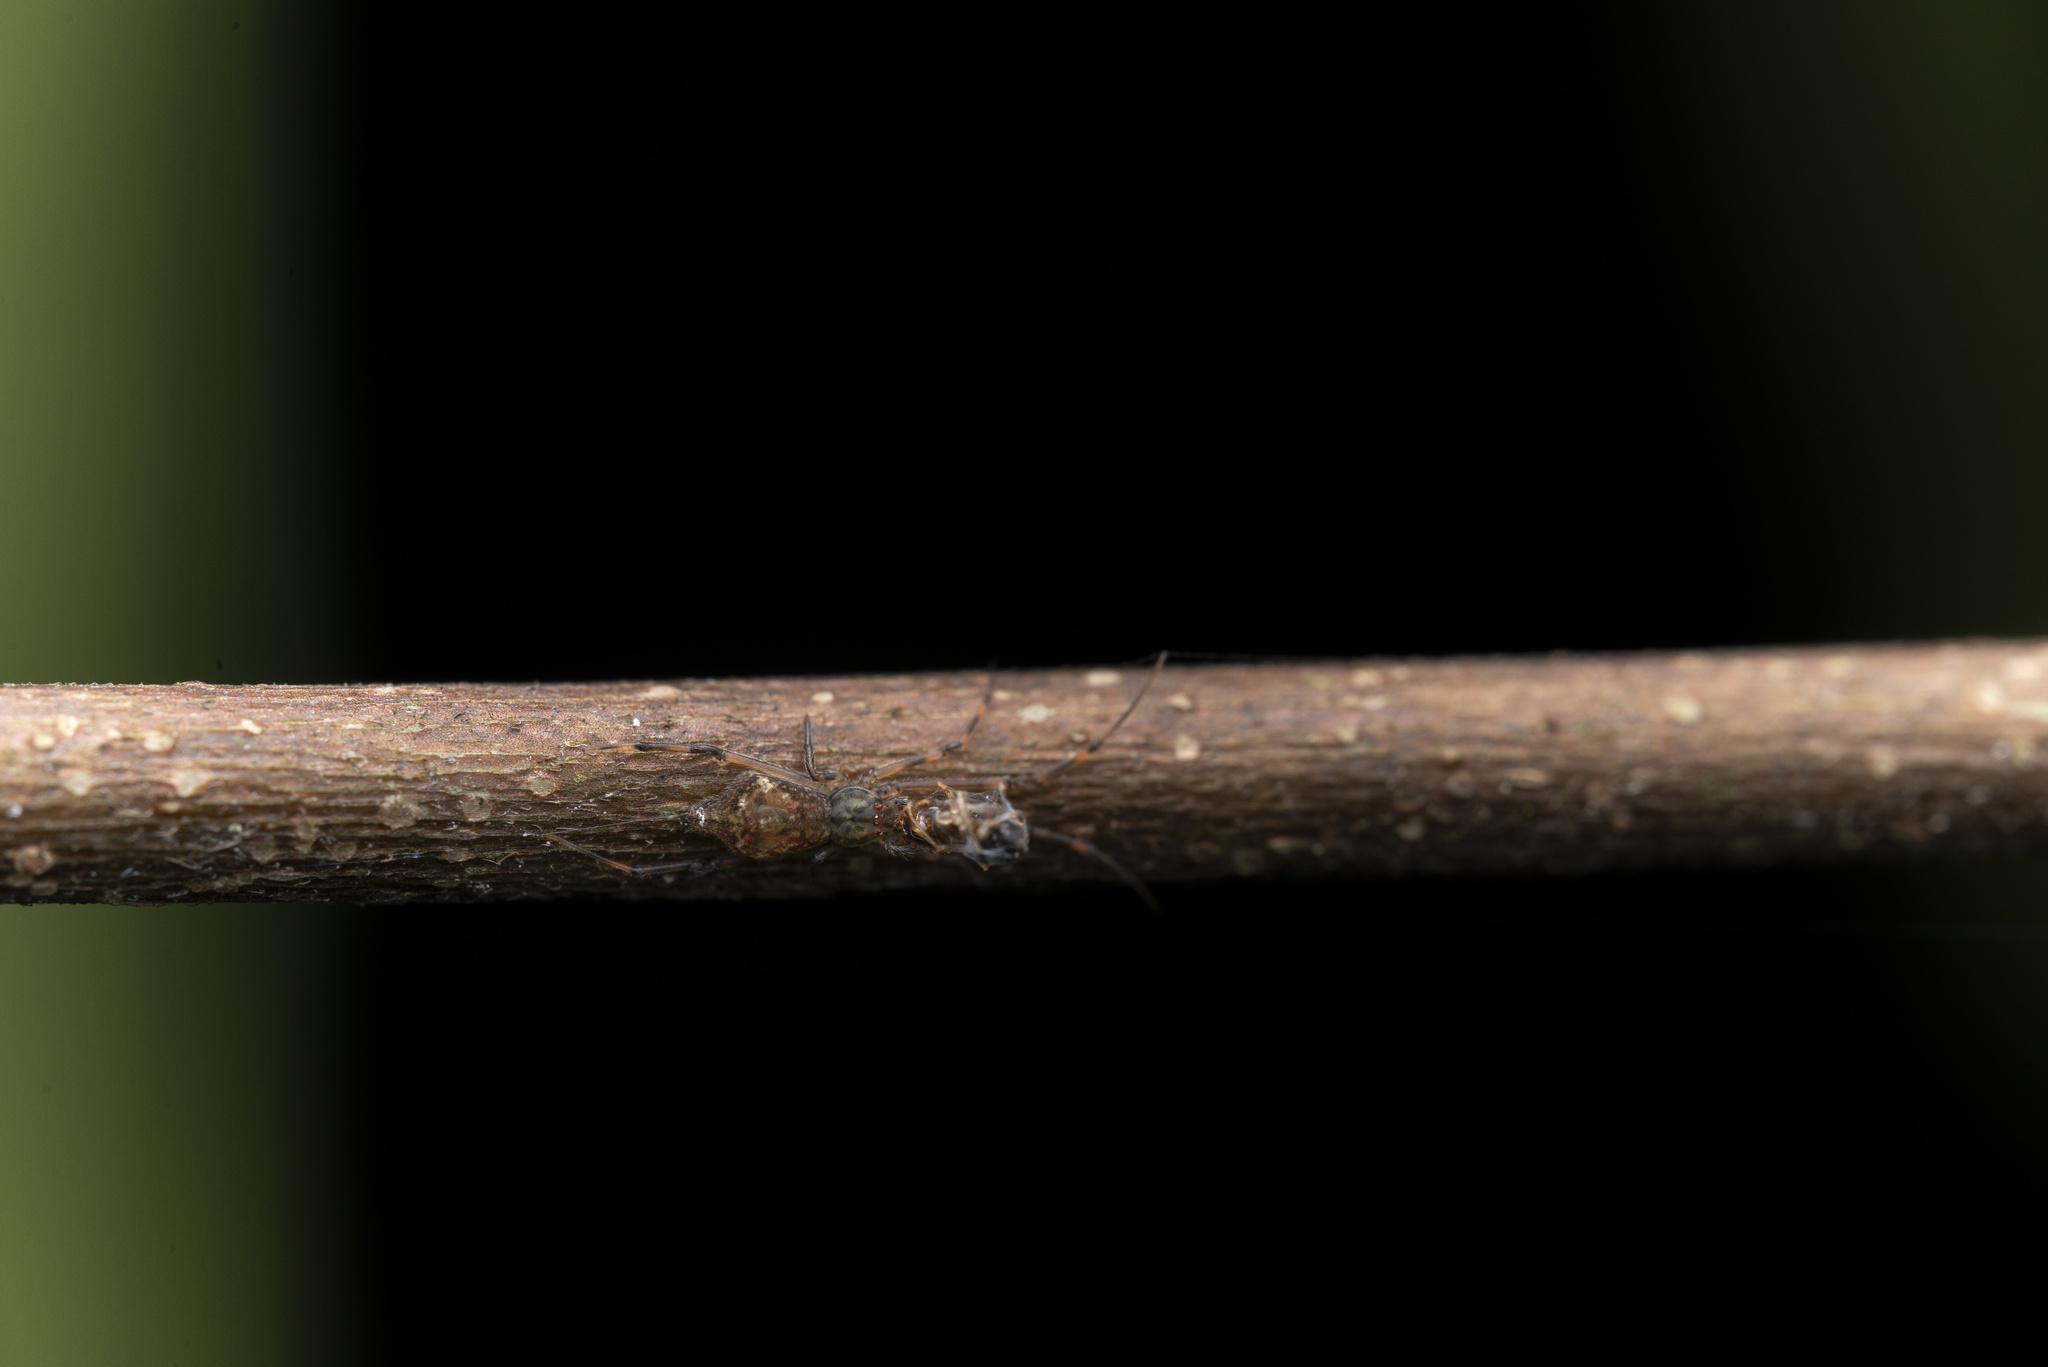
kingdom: Animalia
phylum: Arthropoda
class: Arachnida
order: Araneae
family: Theridiidae
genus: Moneta
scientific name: Moneta mirabilis
